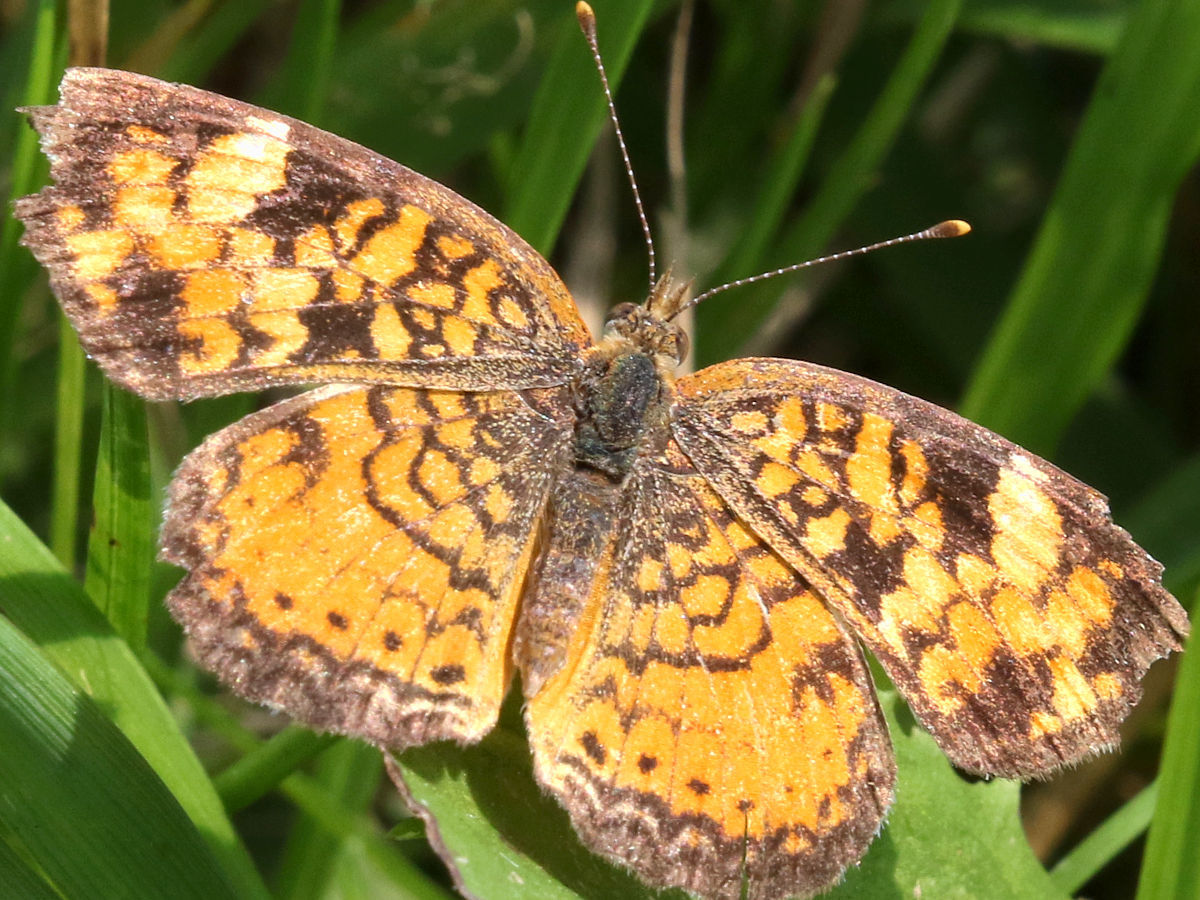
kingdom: Animalia
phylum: Arthropoda
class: Insecta
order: Lepidoptera
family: Nymphalidae
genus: Phyciodes
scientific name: Phyciodes tharos
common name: Pearl crescent
